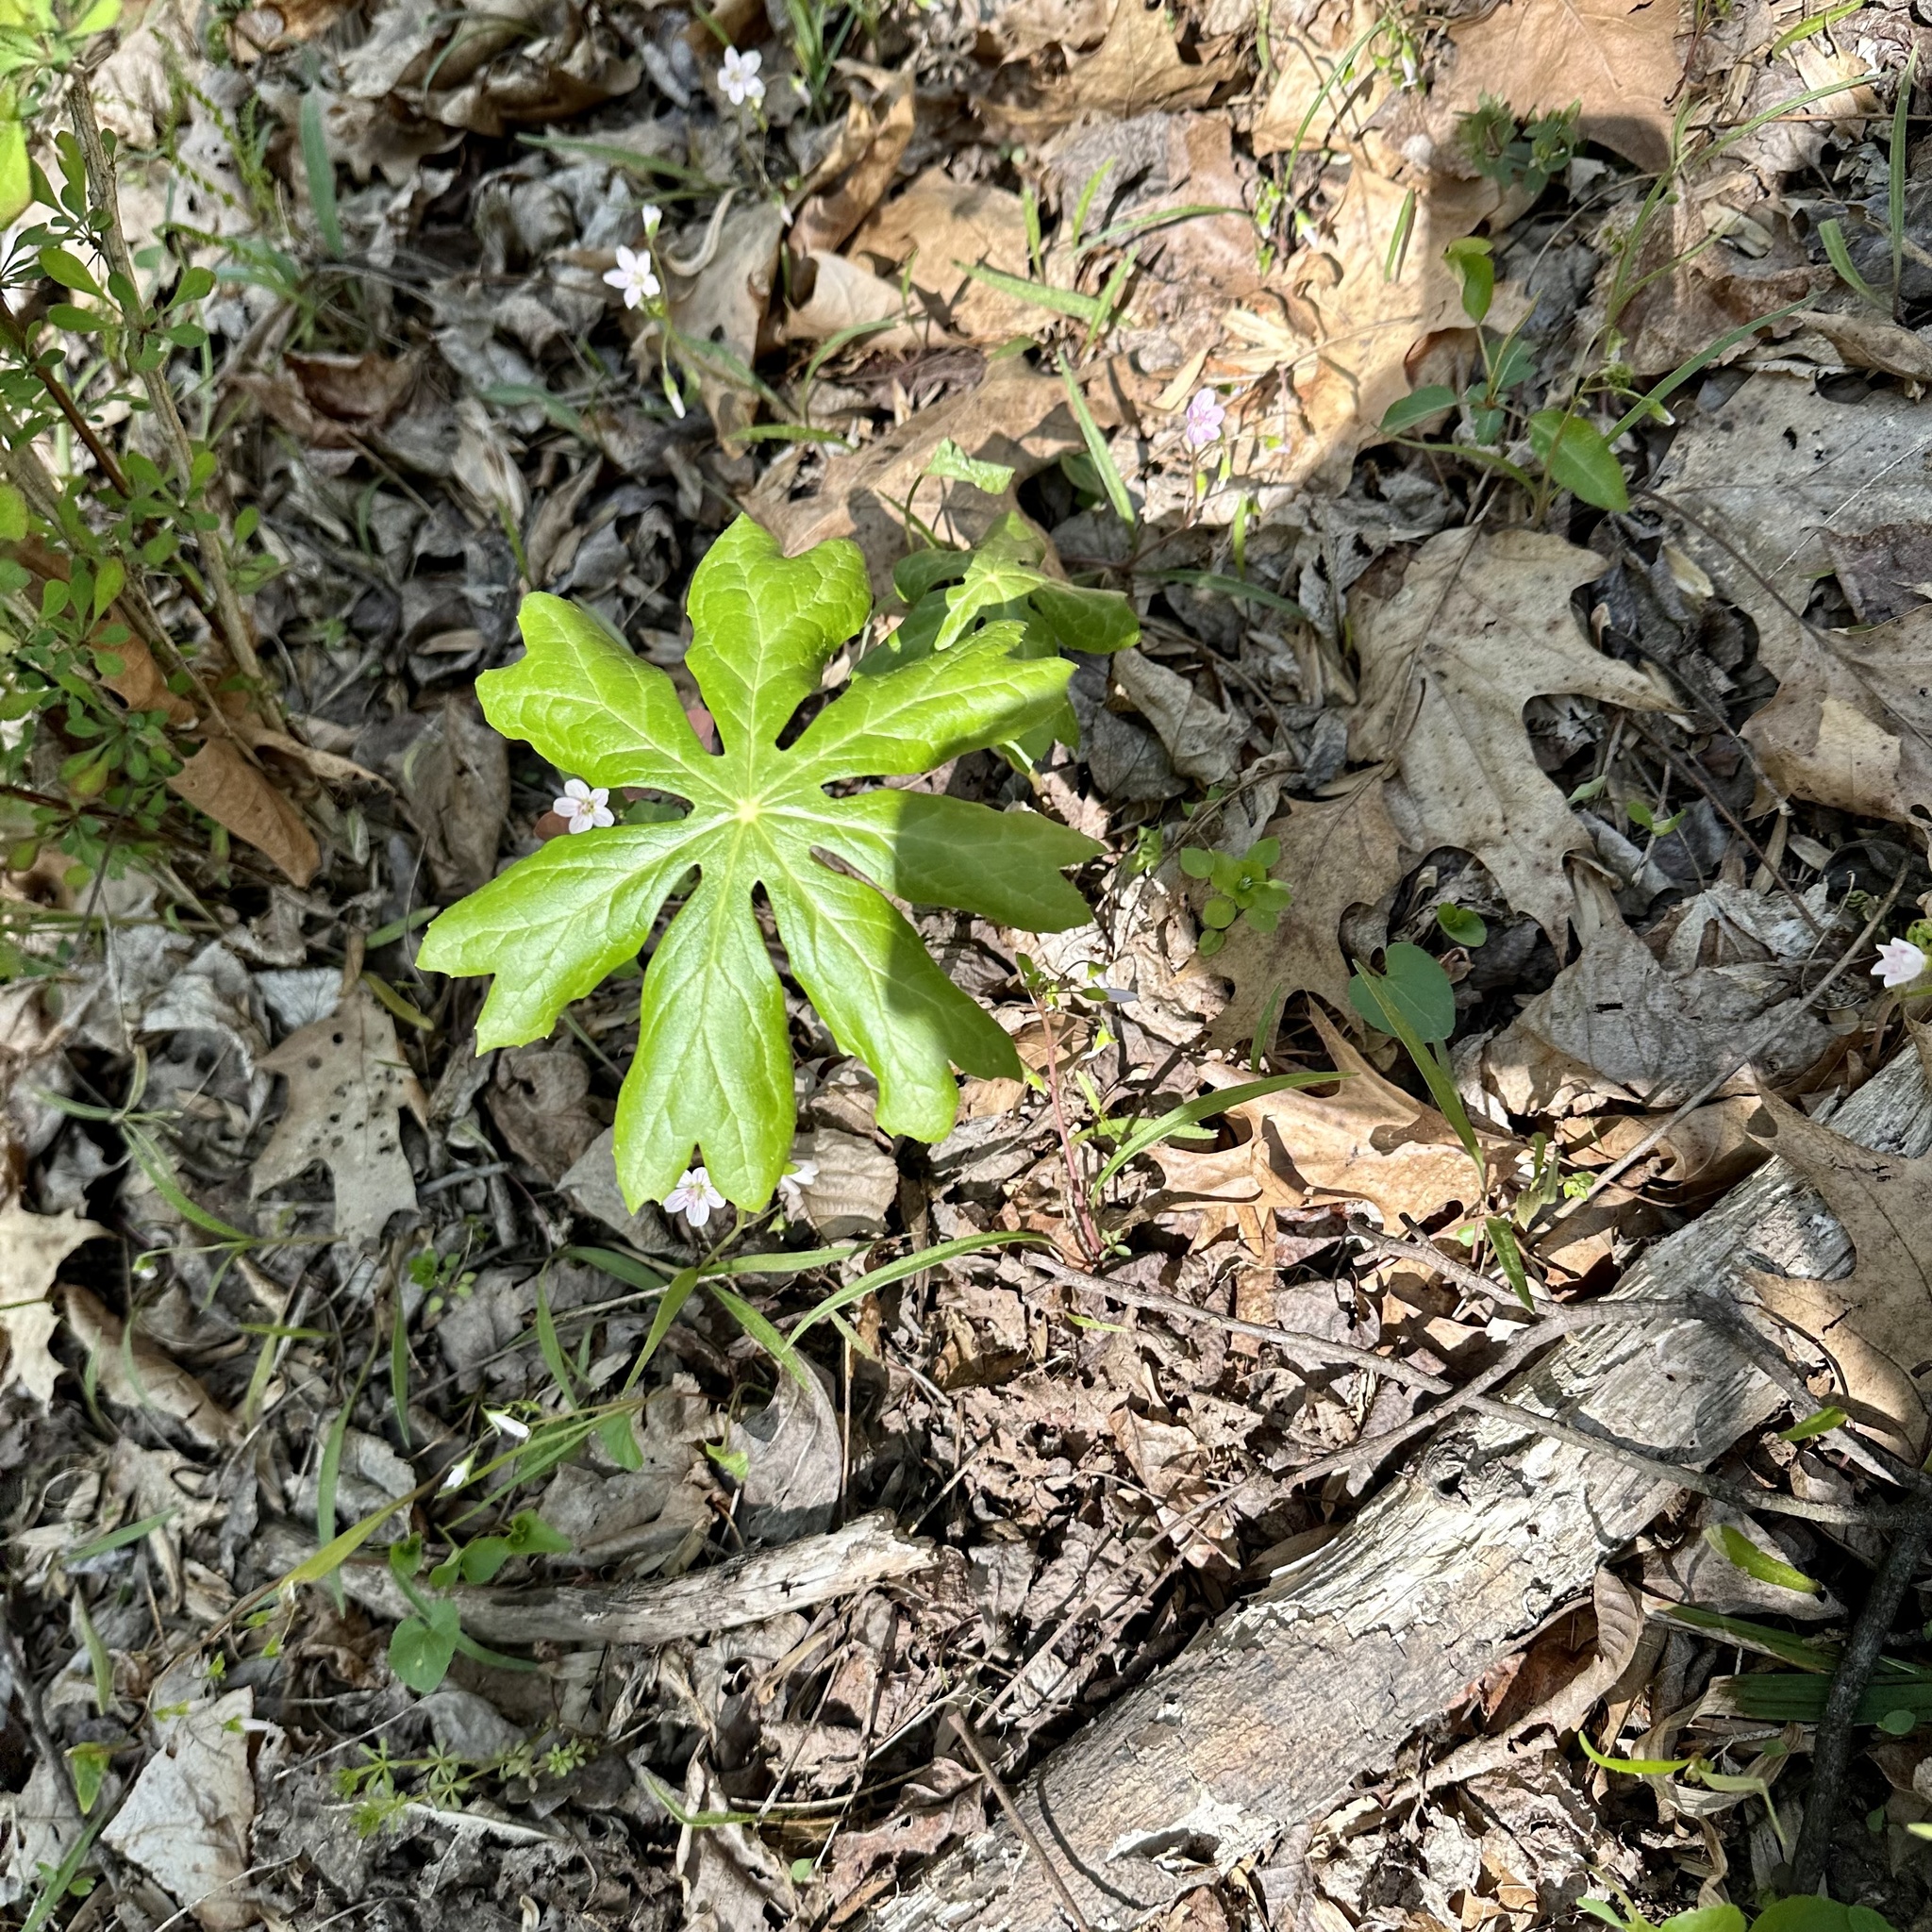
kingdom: Plantae
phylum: Tracheophyta
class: Magnoliopsida
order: Ranunculales
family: Berberidaceae
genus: Podophyllum
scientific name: Podophyllum peltatum
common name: Wild mandrake
